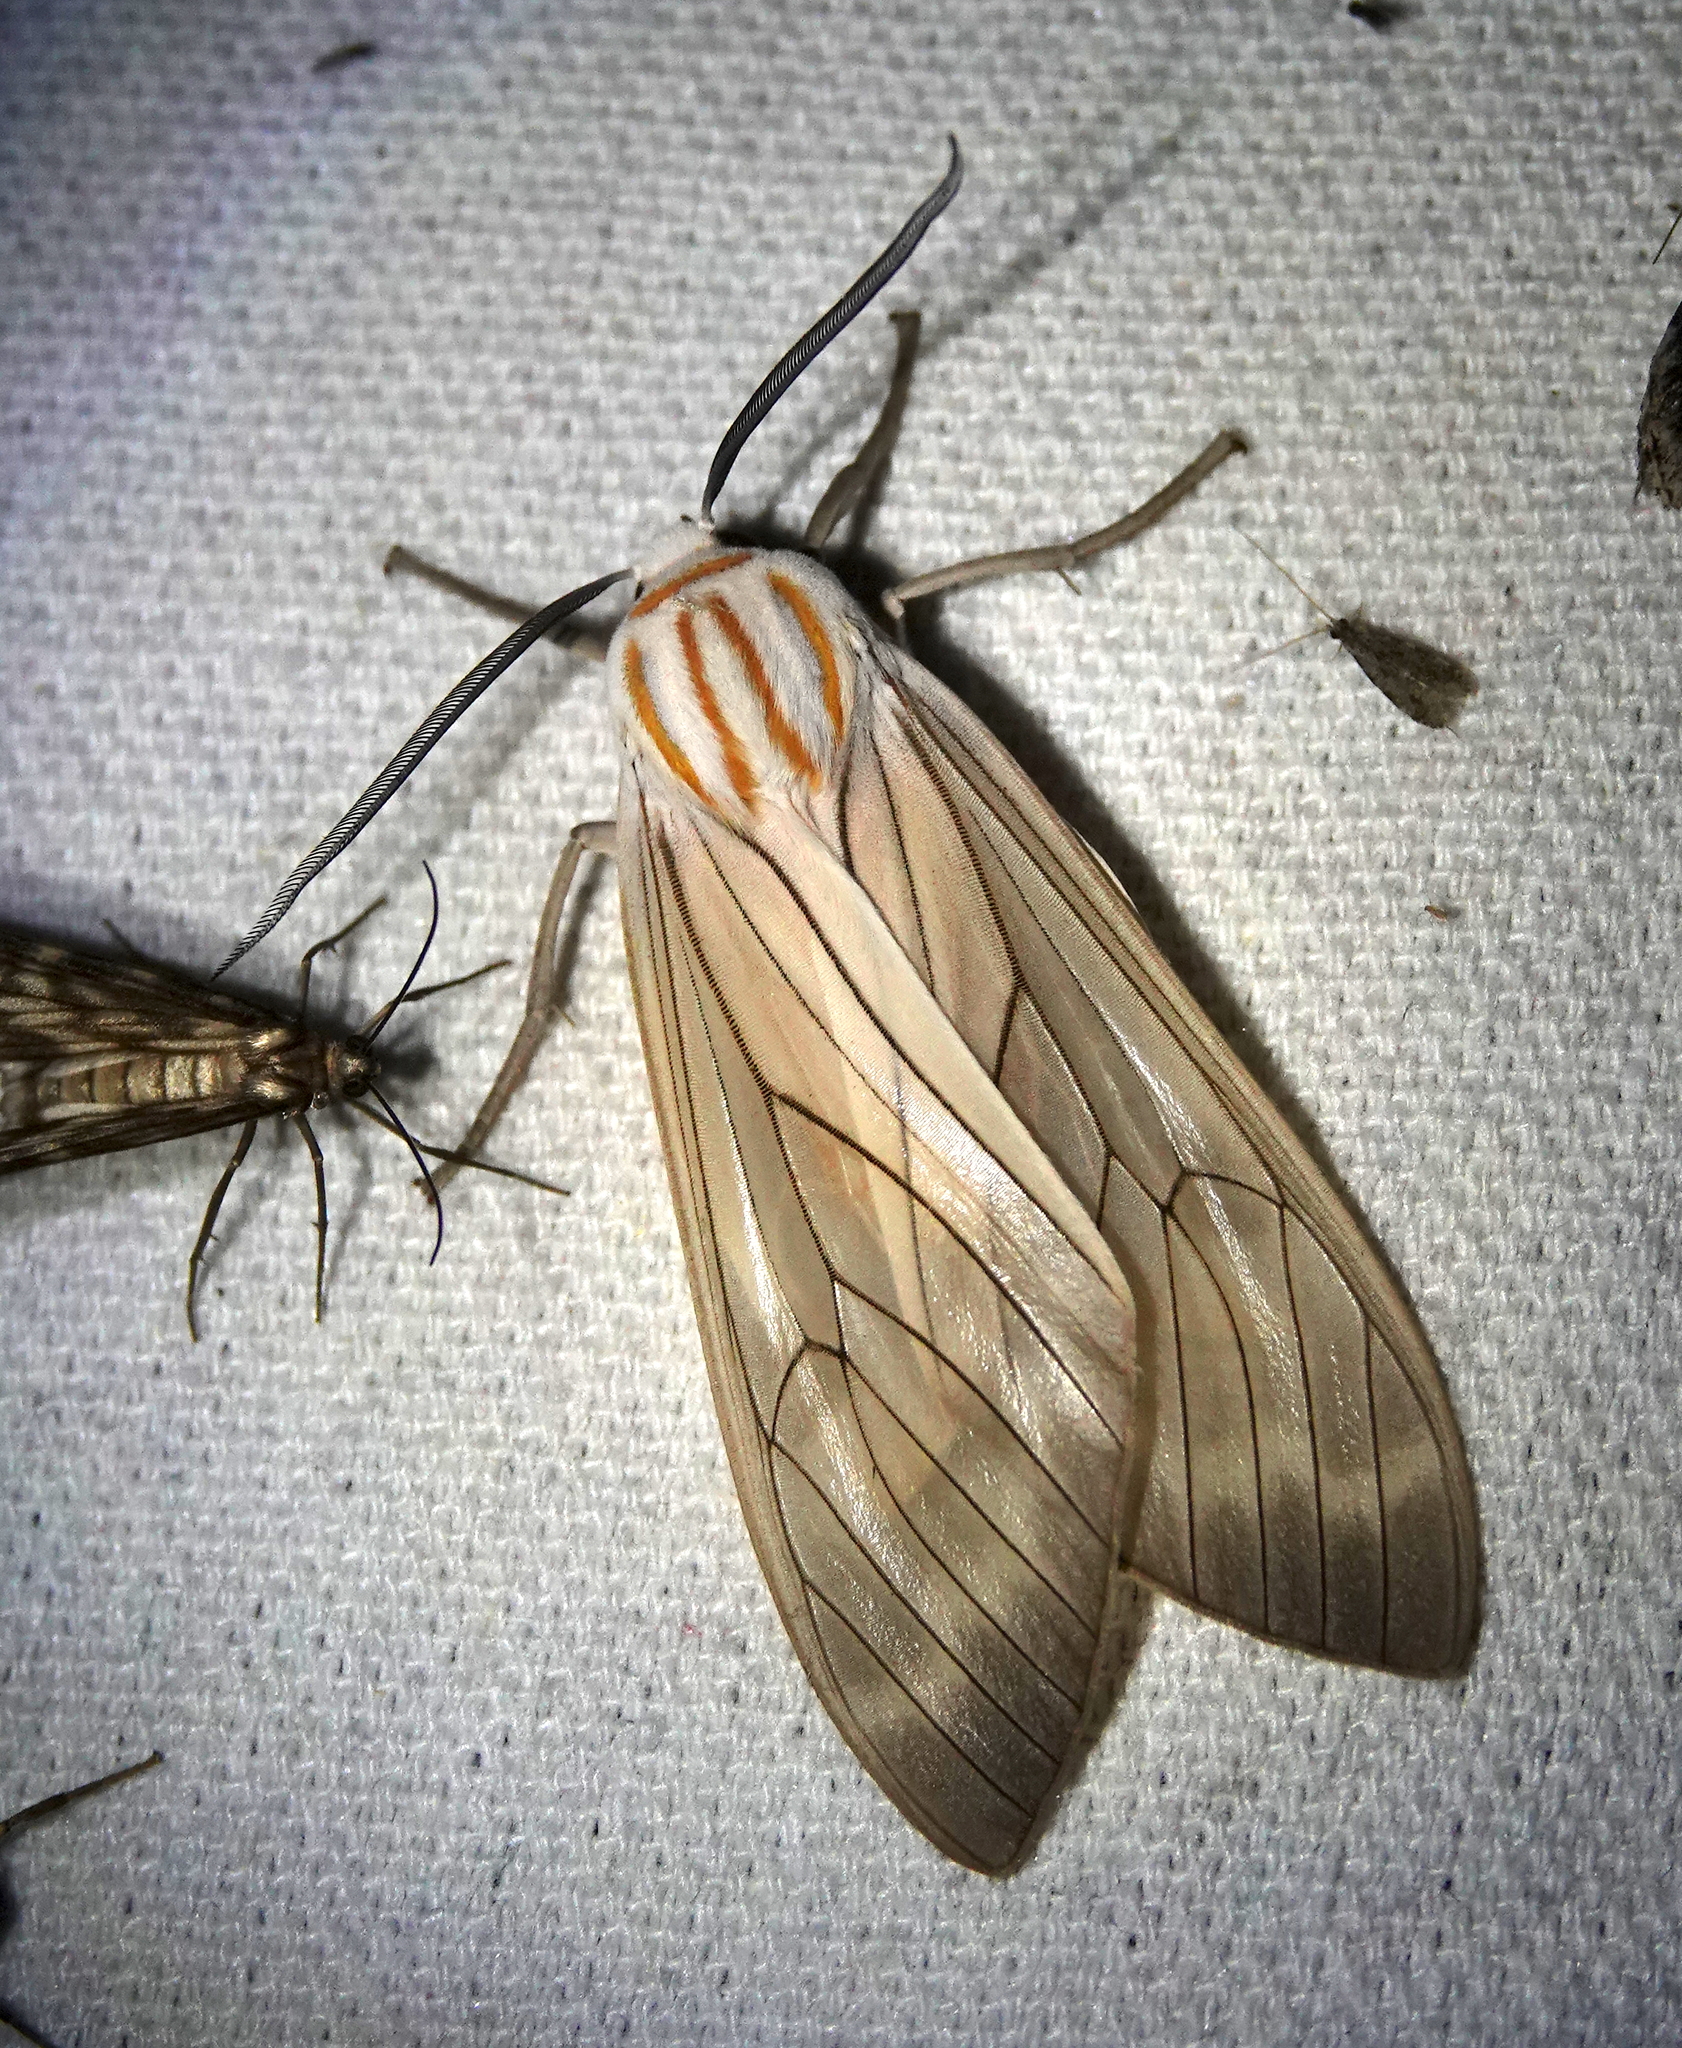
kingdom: Animalia
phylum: Arthropoda
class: Insecta
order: Lepidoptera
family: Erebidae
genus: Amastus
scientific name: Amastus aconia
